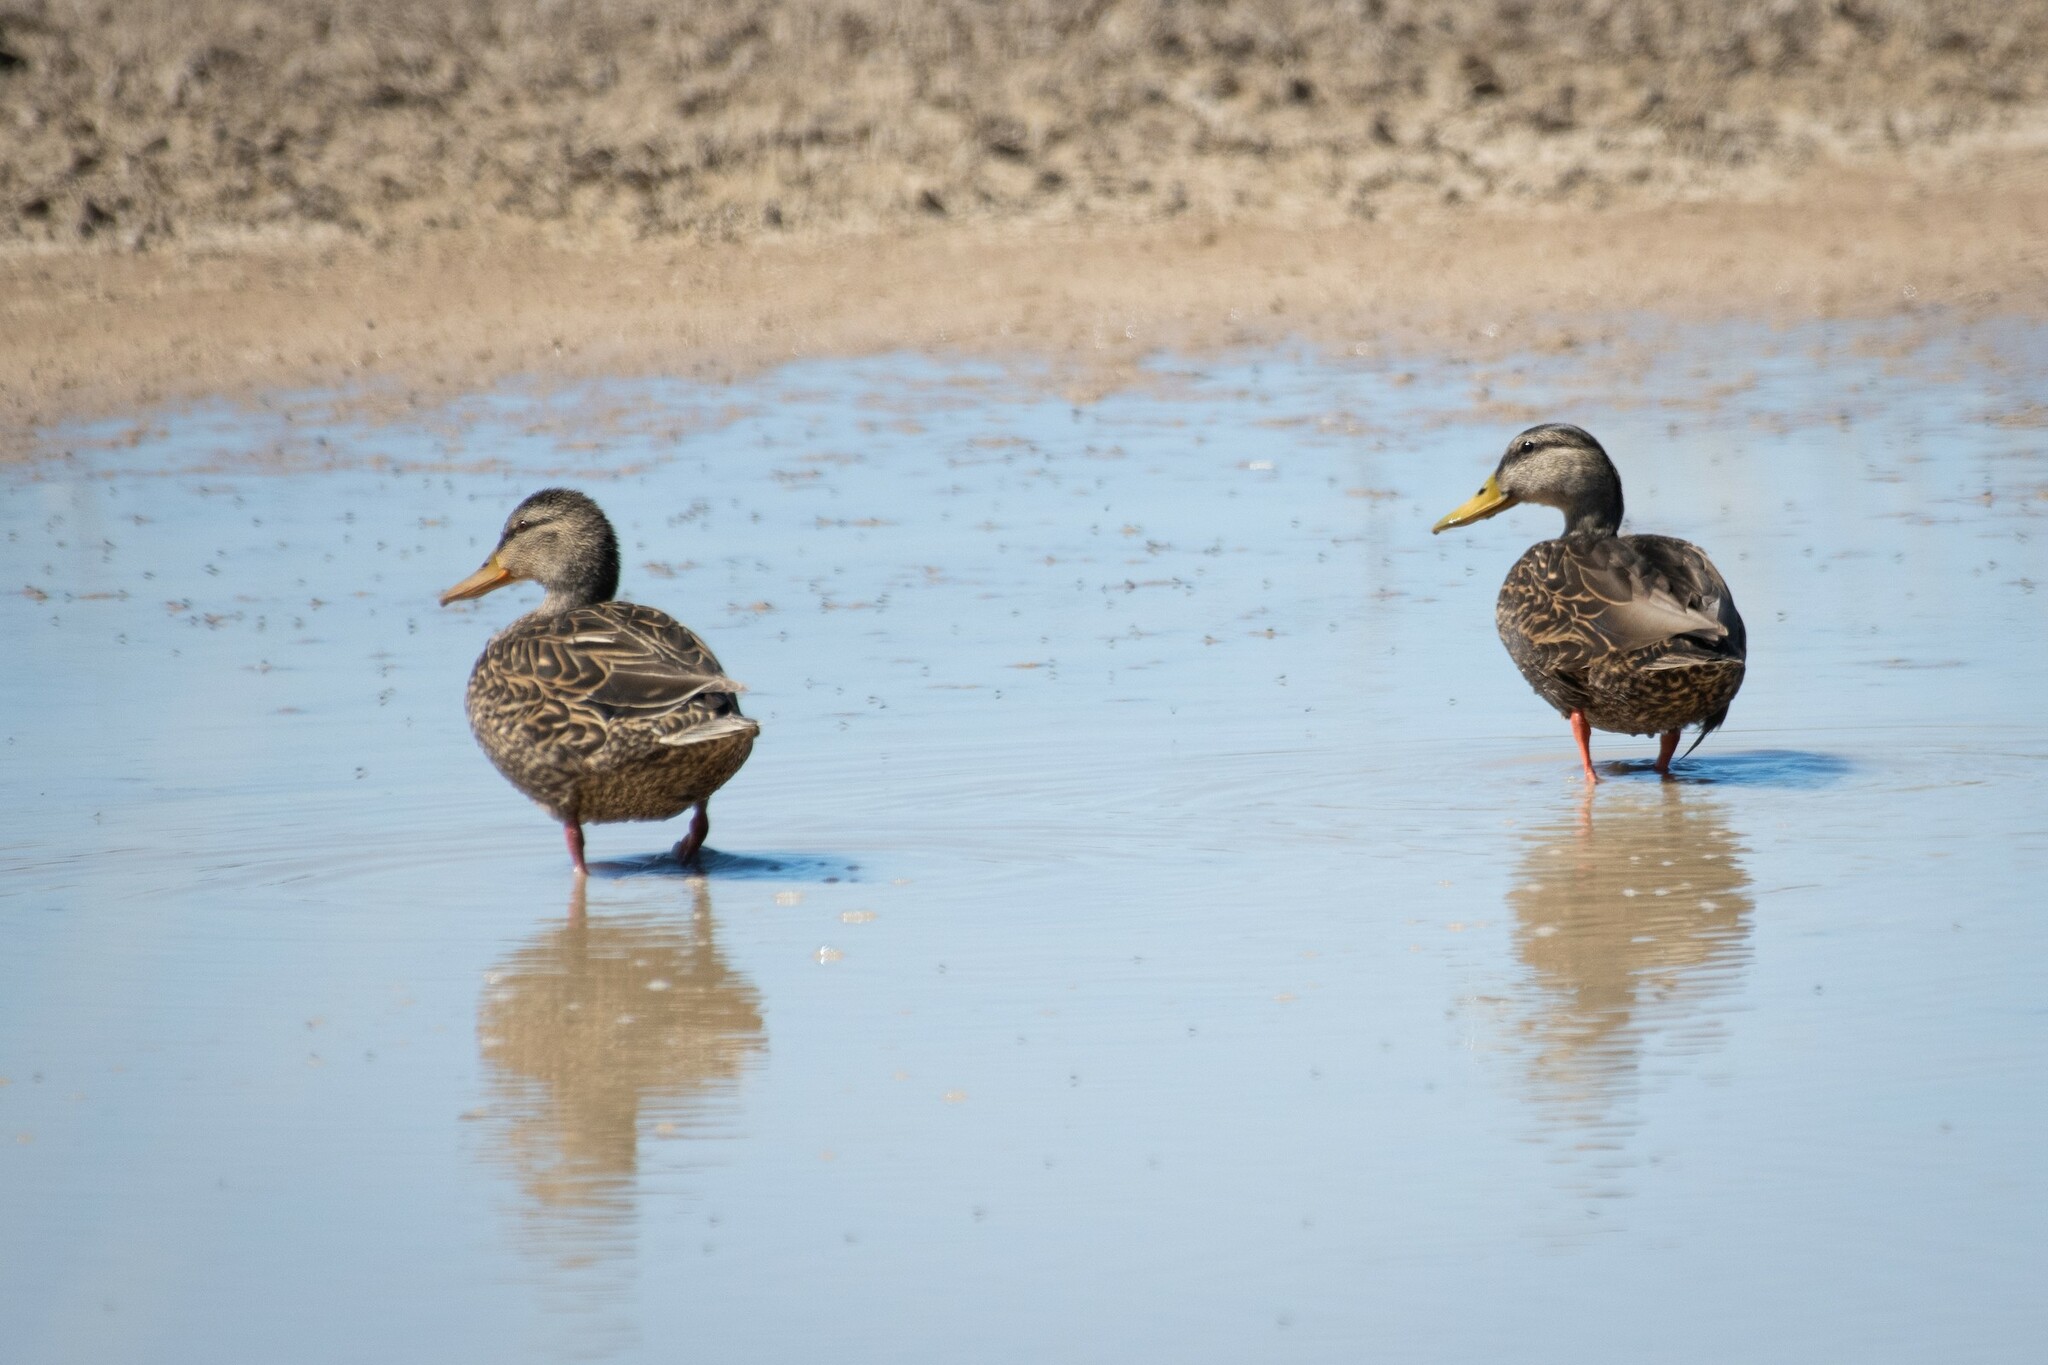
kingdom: Animalia
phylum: Chordata
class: Aves
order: Anseriformes
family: Anatidae
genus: Anas
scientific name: Anas diazi
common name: Mexican duck
